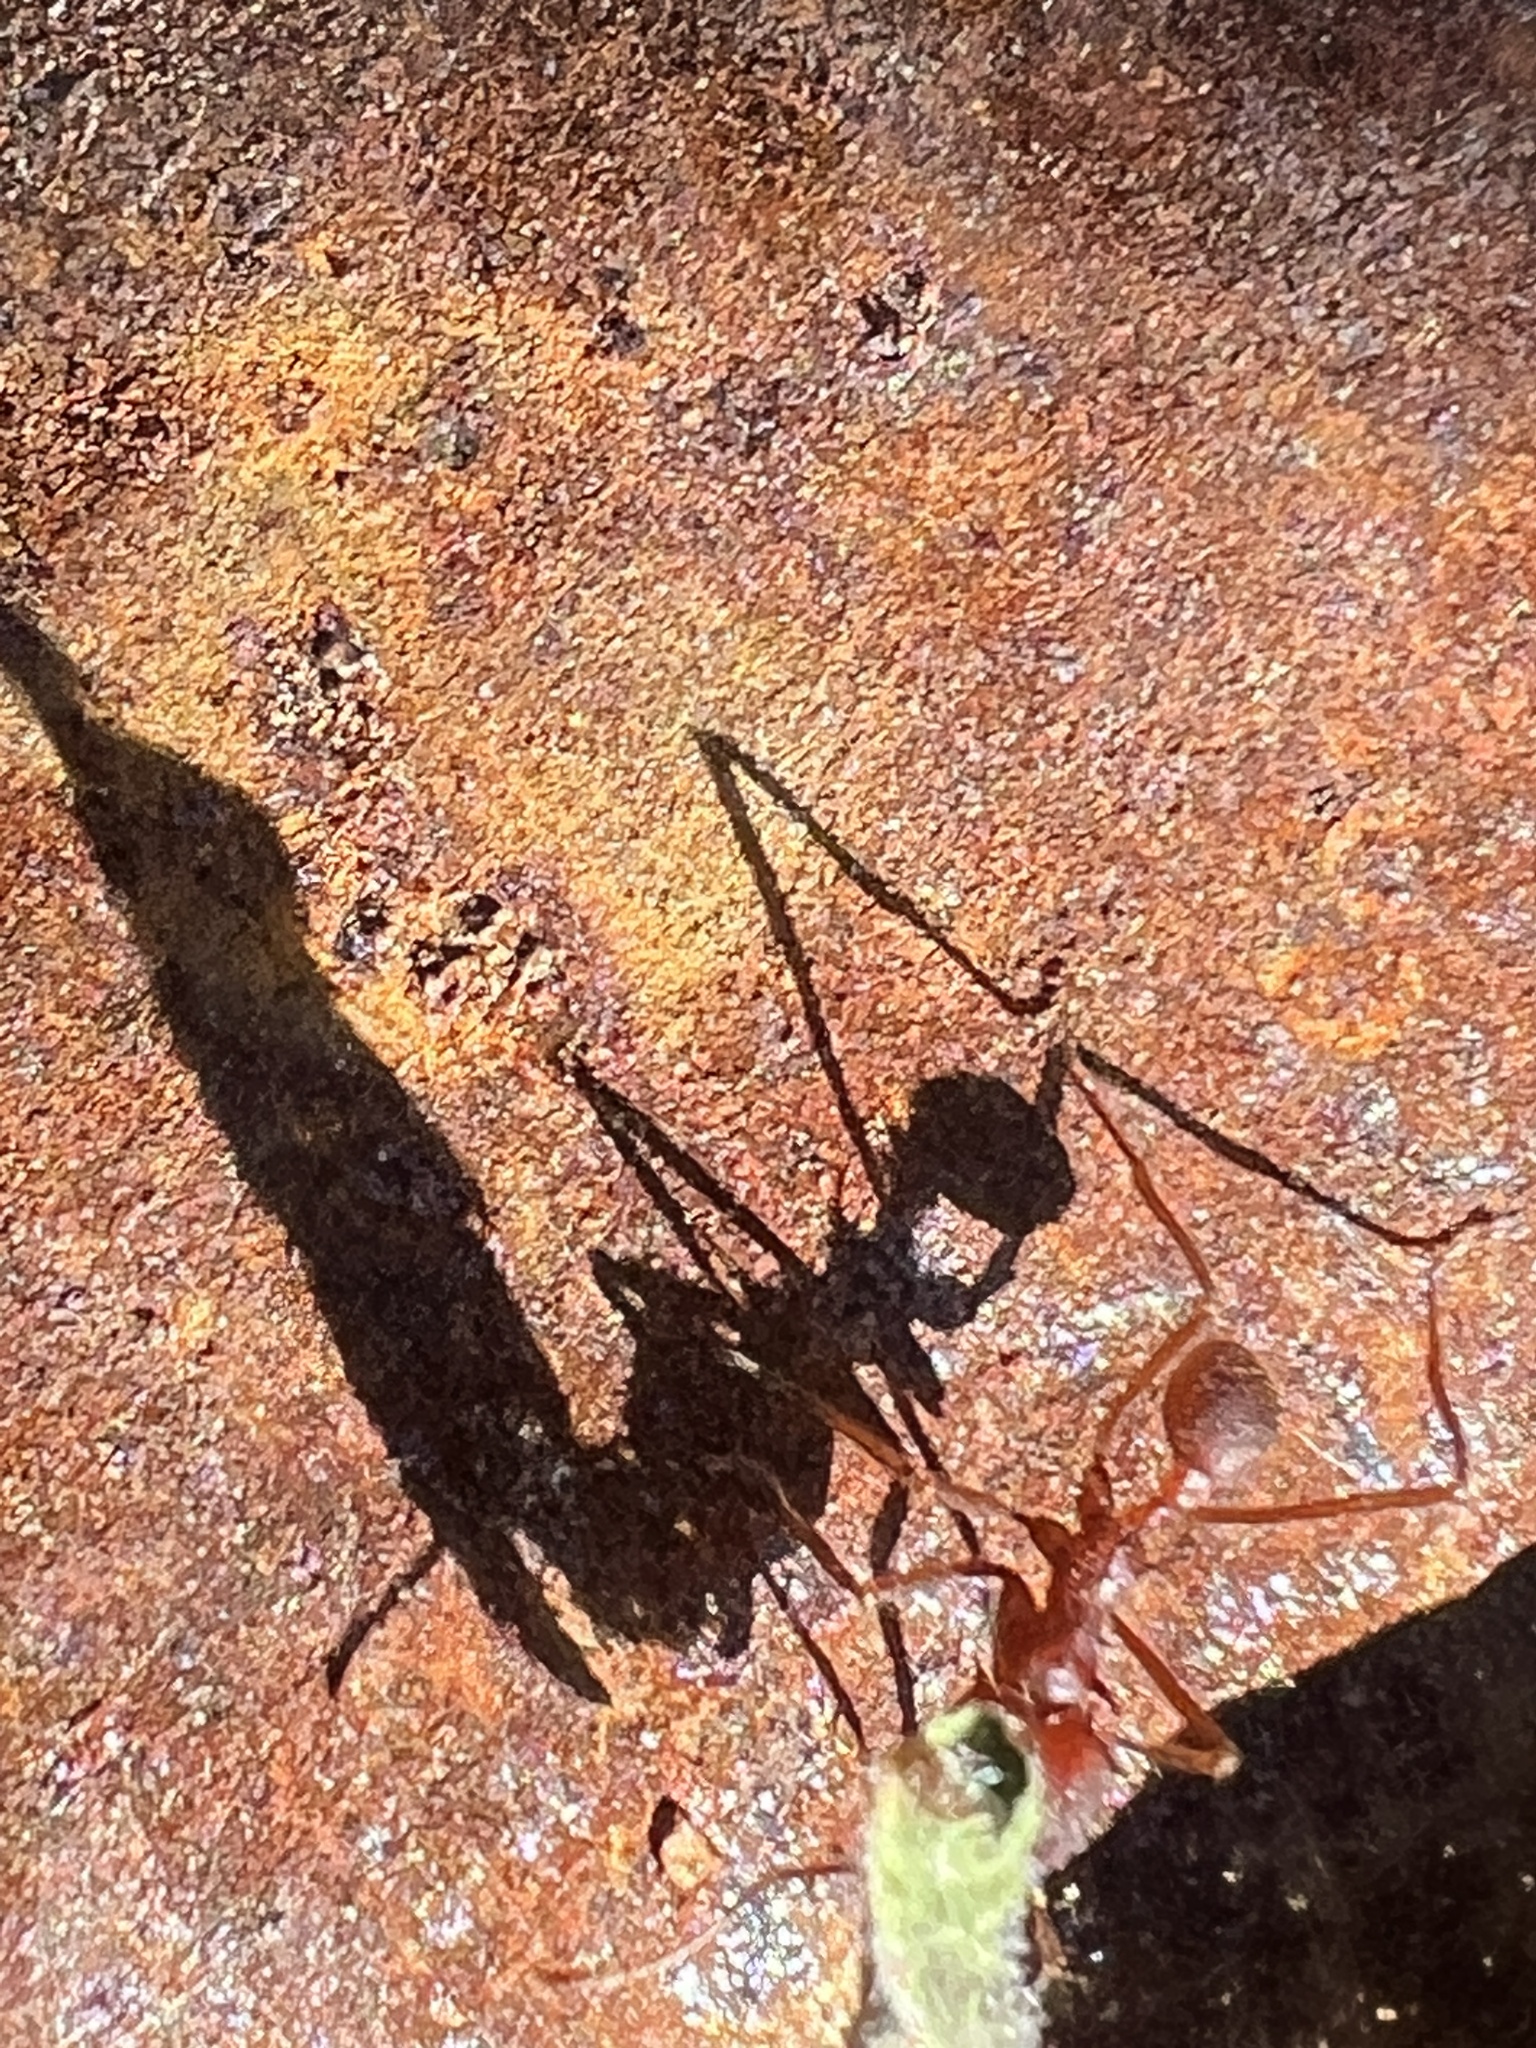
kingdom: Animalia
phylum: Arthropoda
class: Insecta
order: Hymenoptera
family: Formicidae
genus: Atta
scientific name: Atta texana
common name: Texas leafcutting ant
